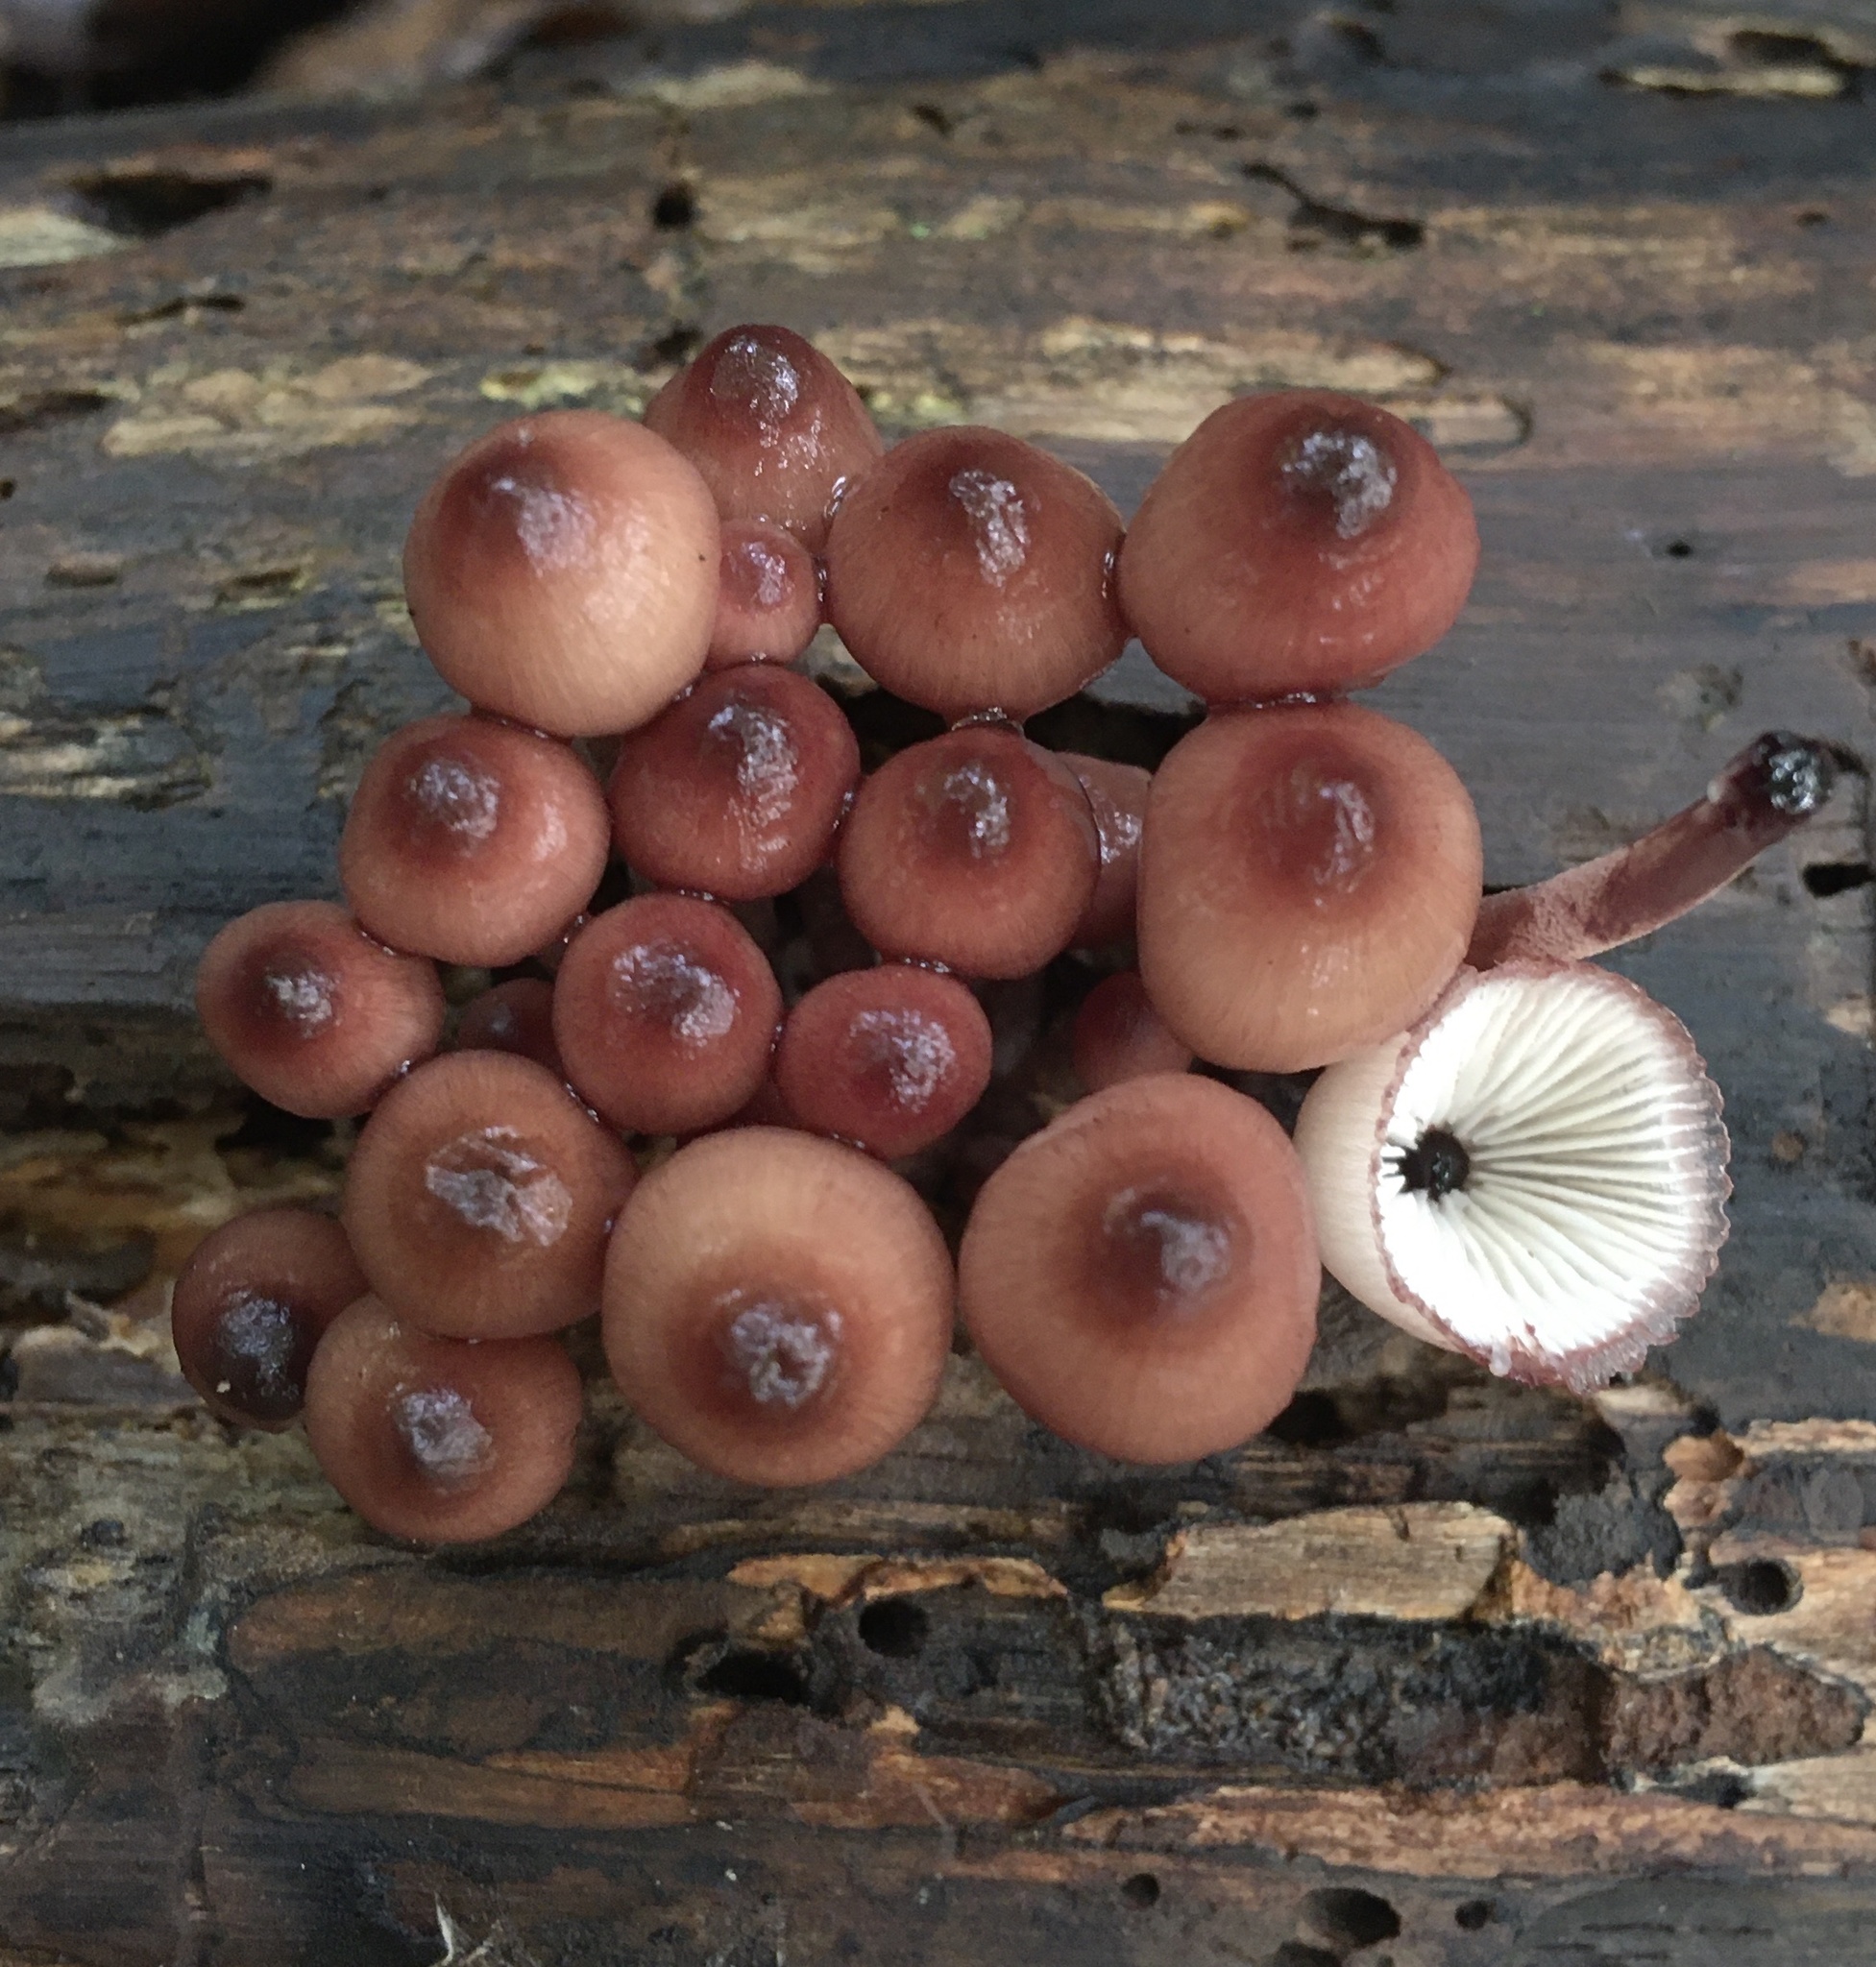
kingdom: Fungi
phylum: Basidiomycota
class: Agaricomycetes
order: Agaricales
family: Mycenaceae
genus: Mycena
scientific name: Mycena haematopus
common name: Burgundydrop bonnet
